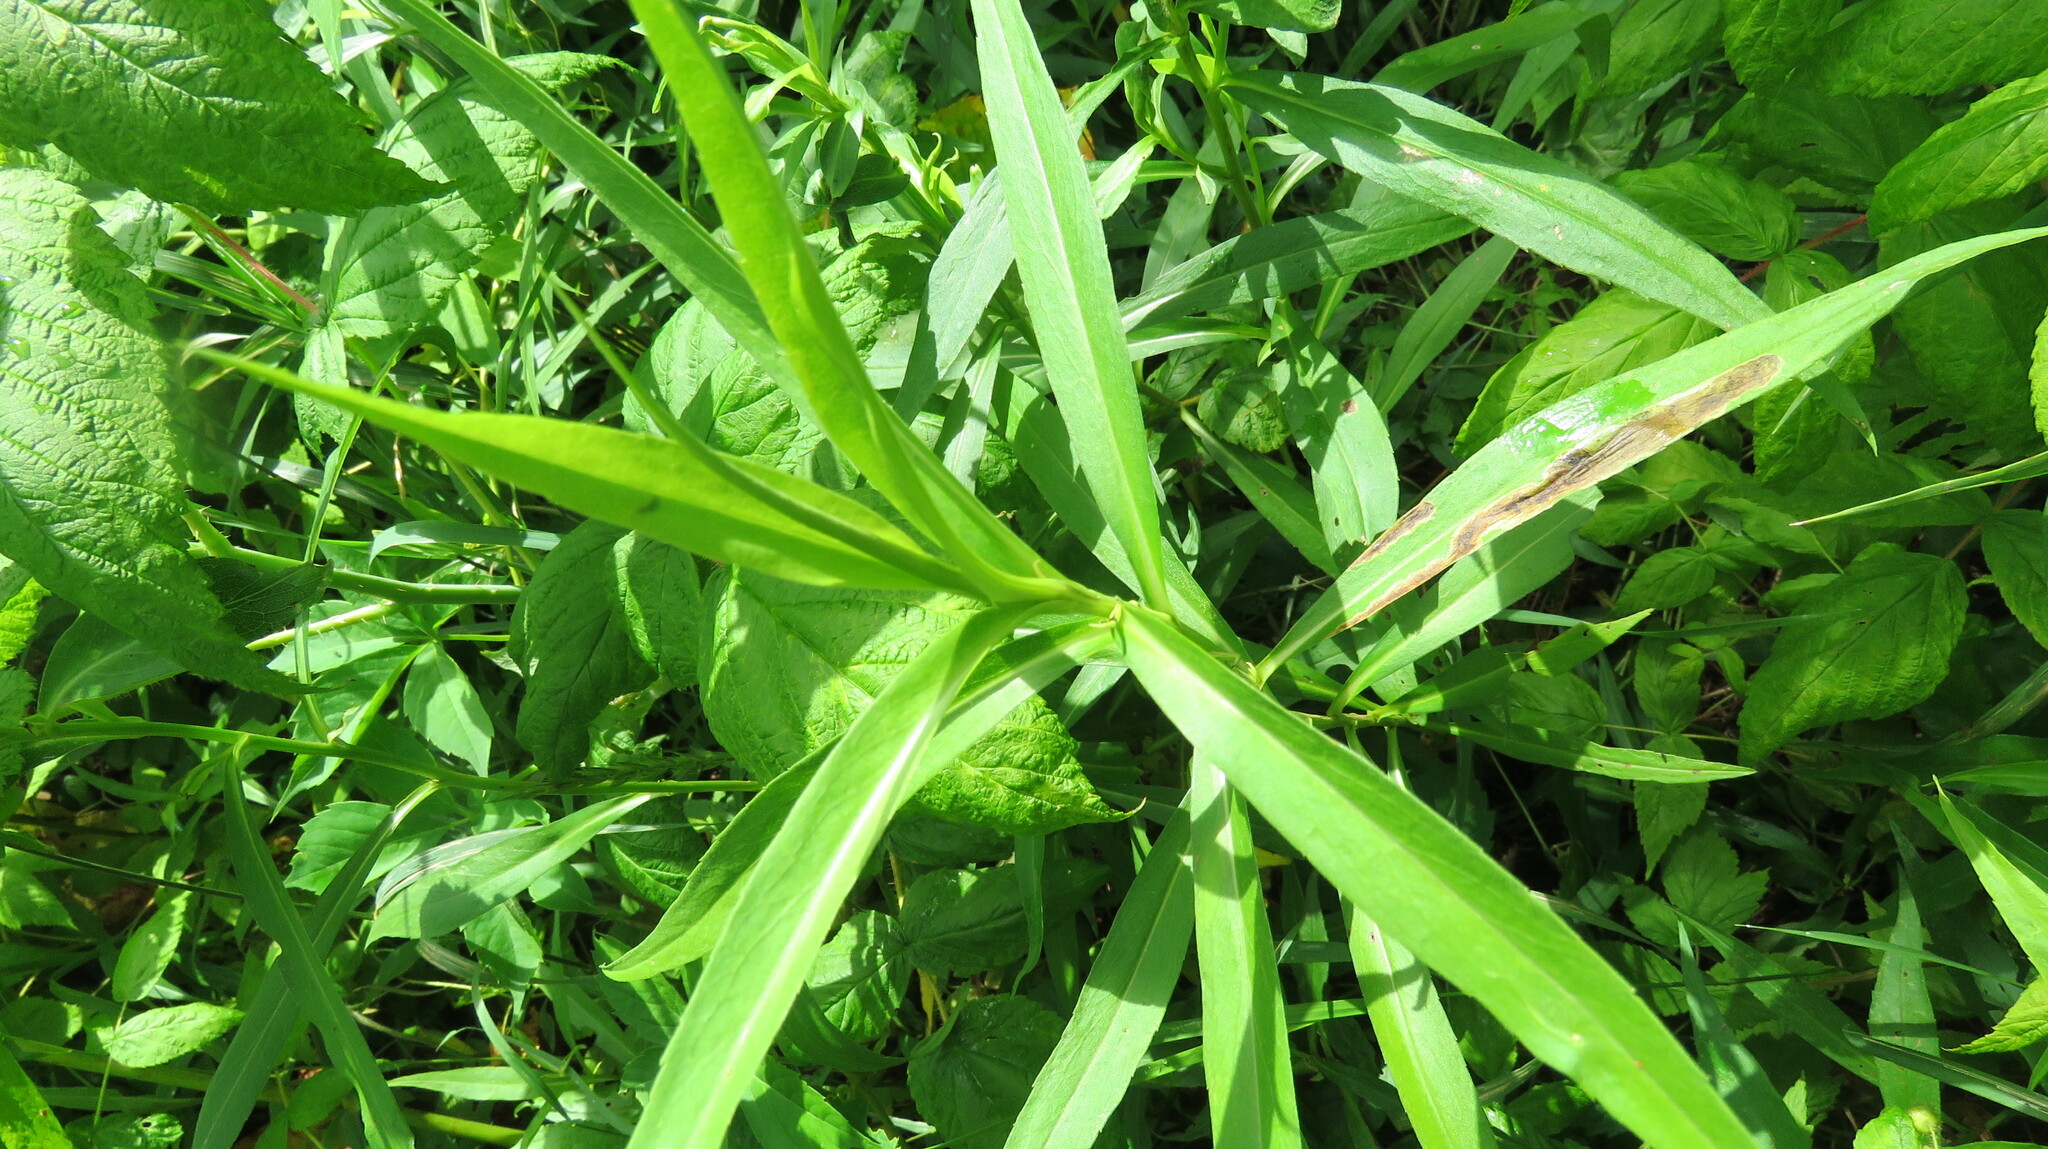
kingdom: Animalia
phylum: Arthropoda
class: Insecta
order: Diptera
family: Agromyzidae
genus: Nemorimyza
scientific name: Nemorimyza posticata
